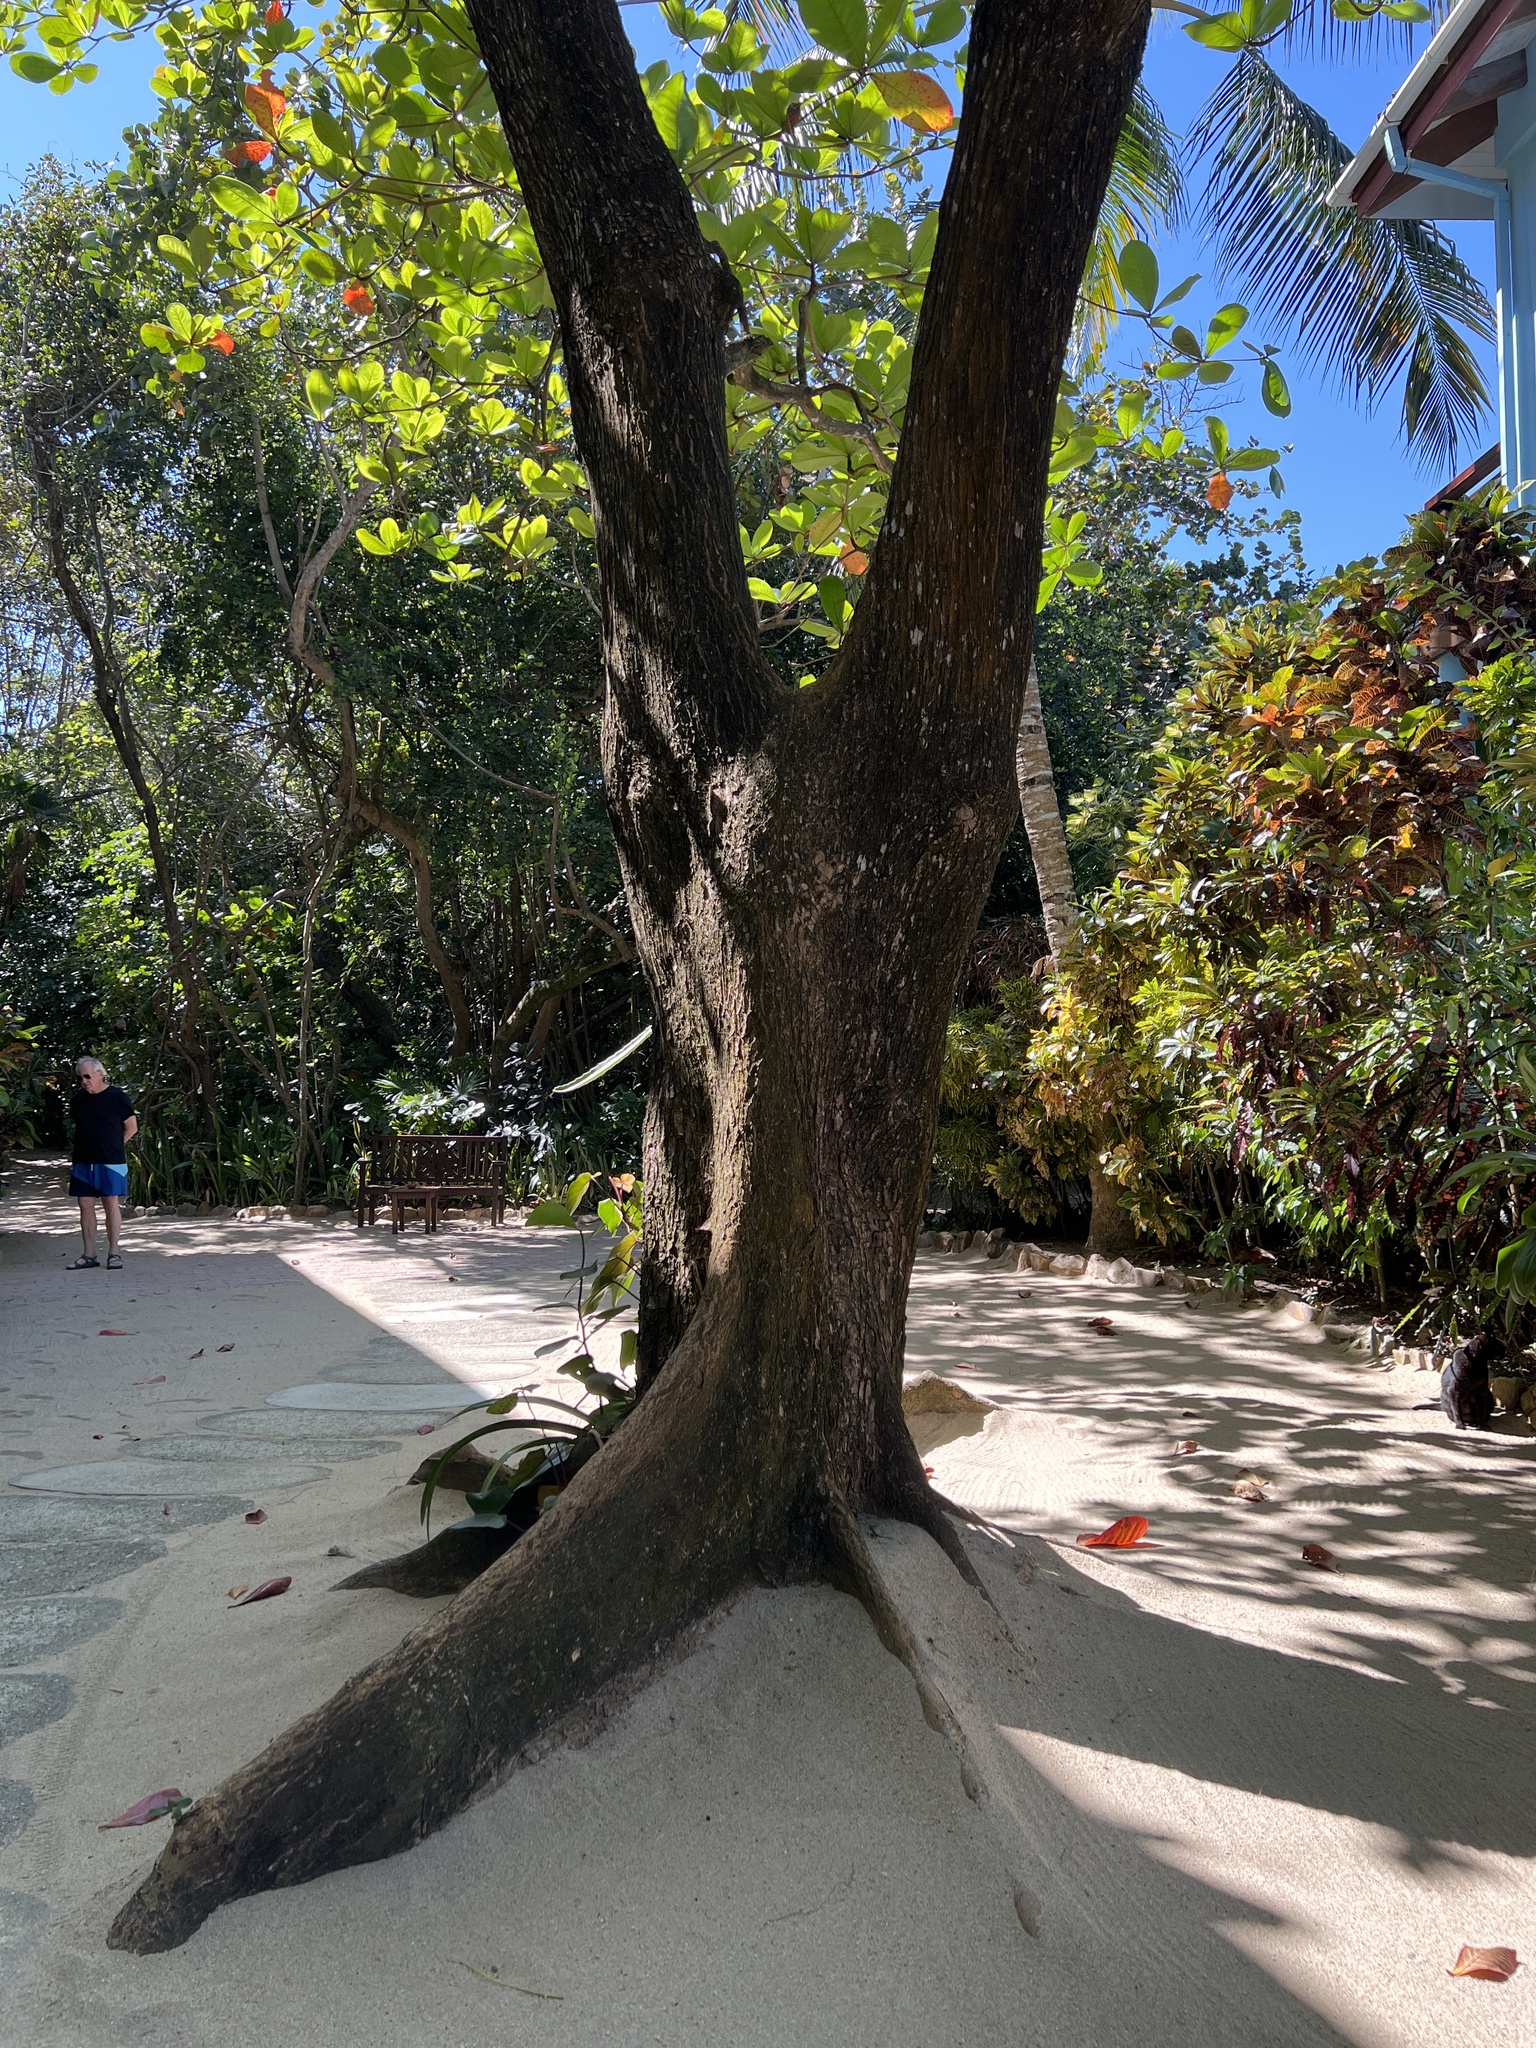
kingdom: Plantae
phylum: Tracheophyta
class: Magnoliopsida
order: Myrtales
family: Combretaceae
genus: Terminalia
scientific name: Terminalia catappa
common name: Tropical almond
